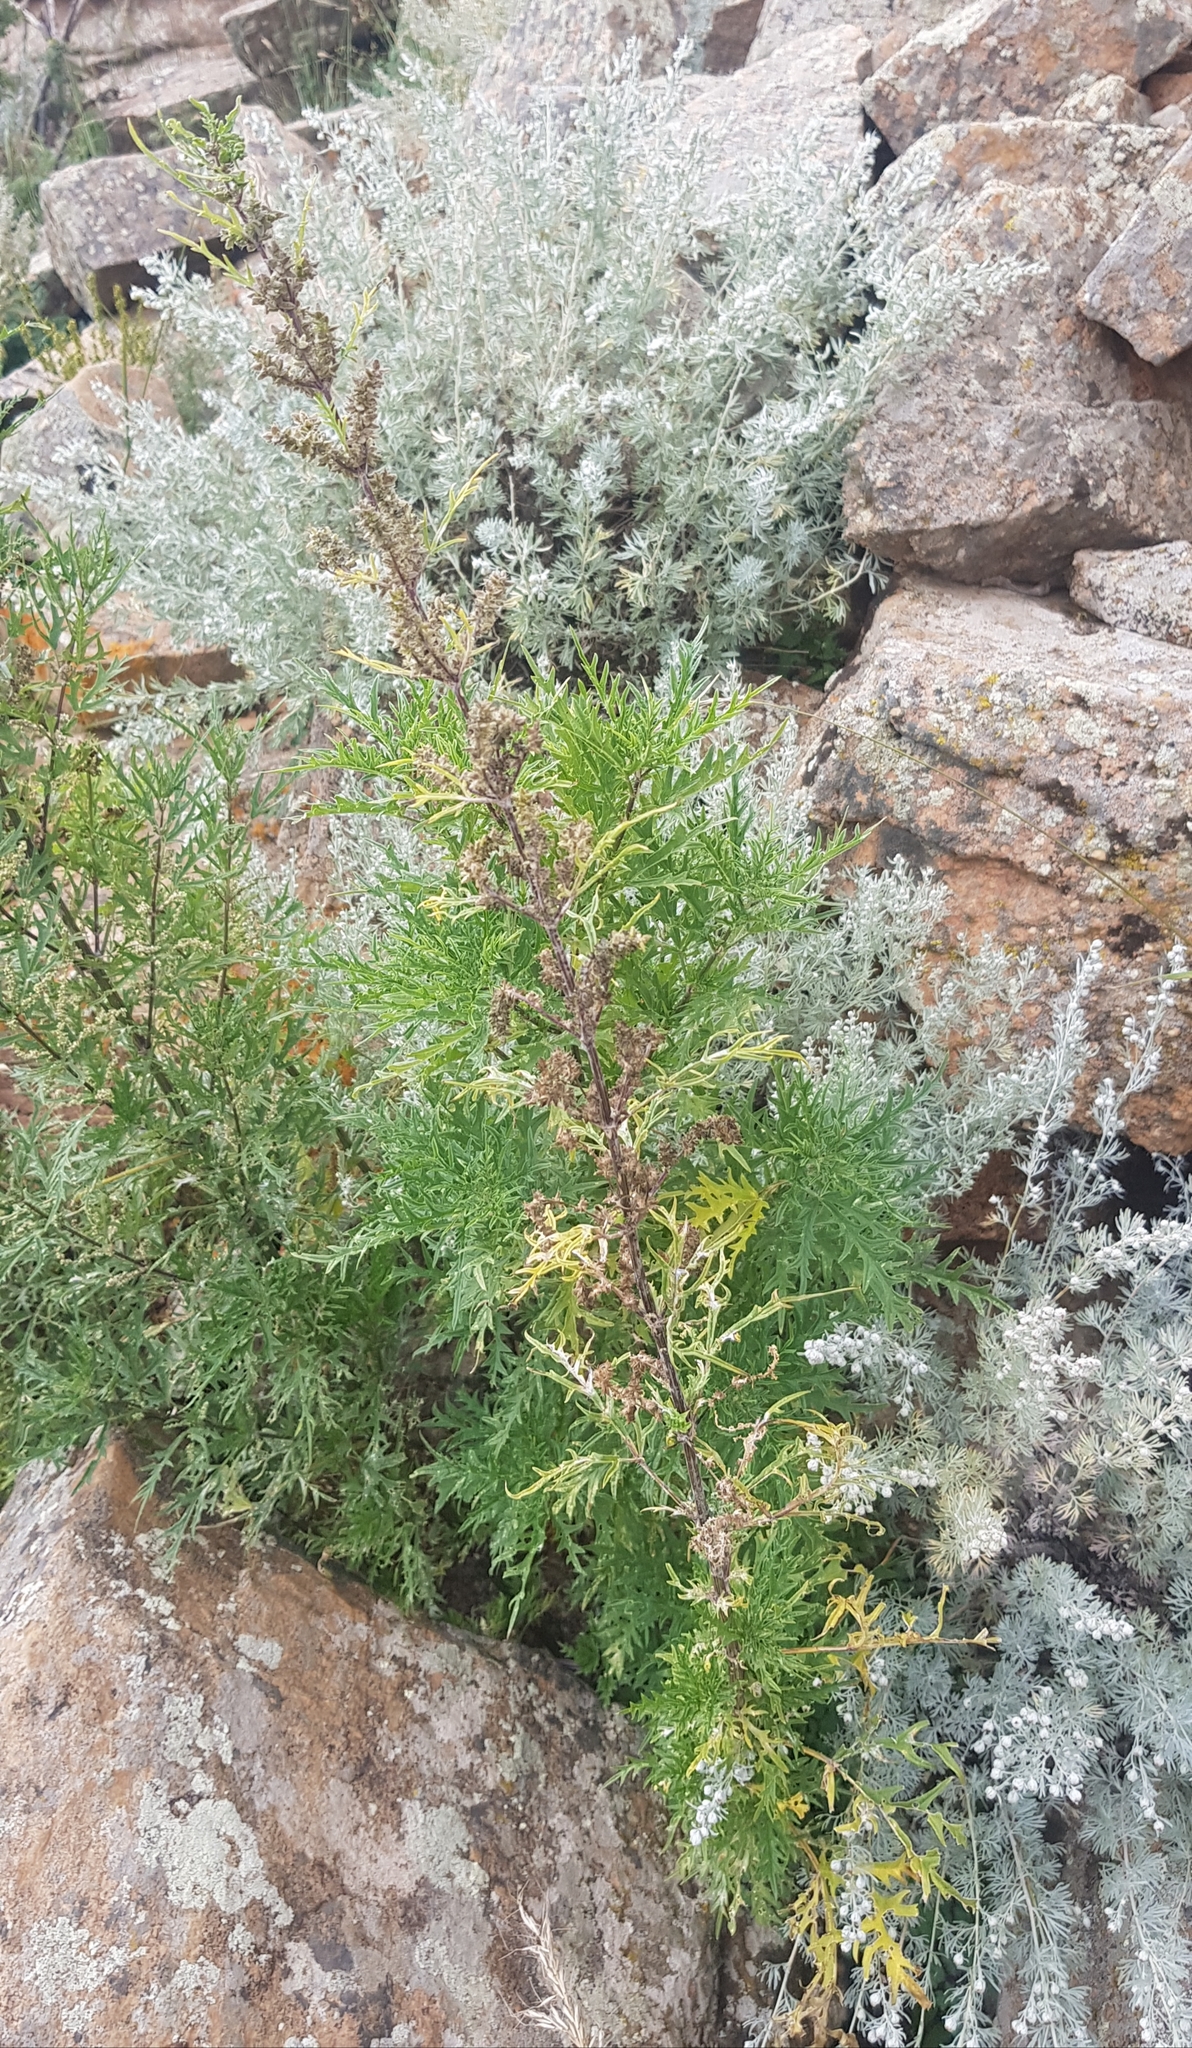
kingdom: Plantae
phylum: Tracheophyta
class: Magnoliopsida
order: Rosales
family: Urticaceae
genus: Urtica
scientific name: Urtica cannabina
